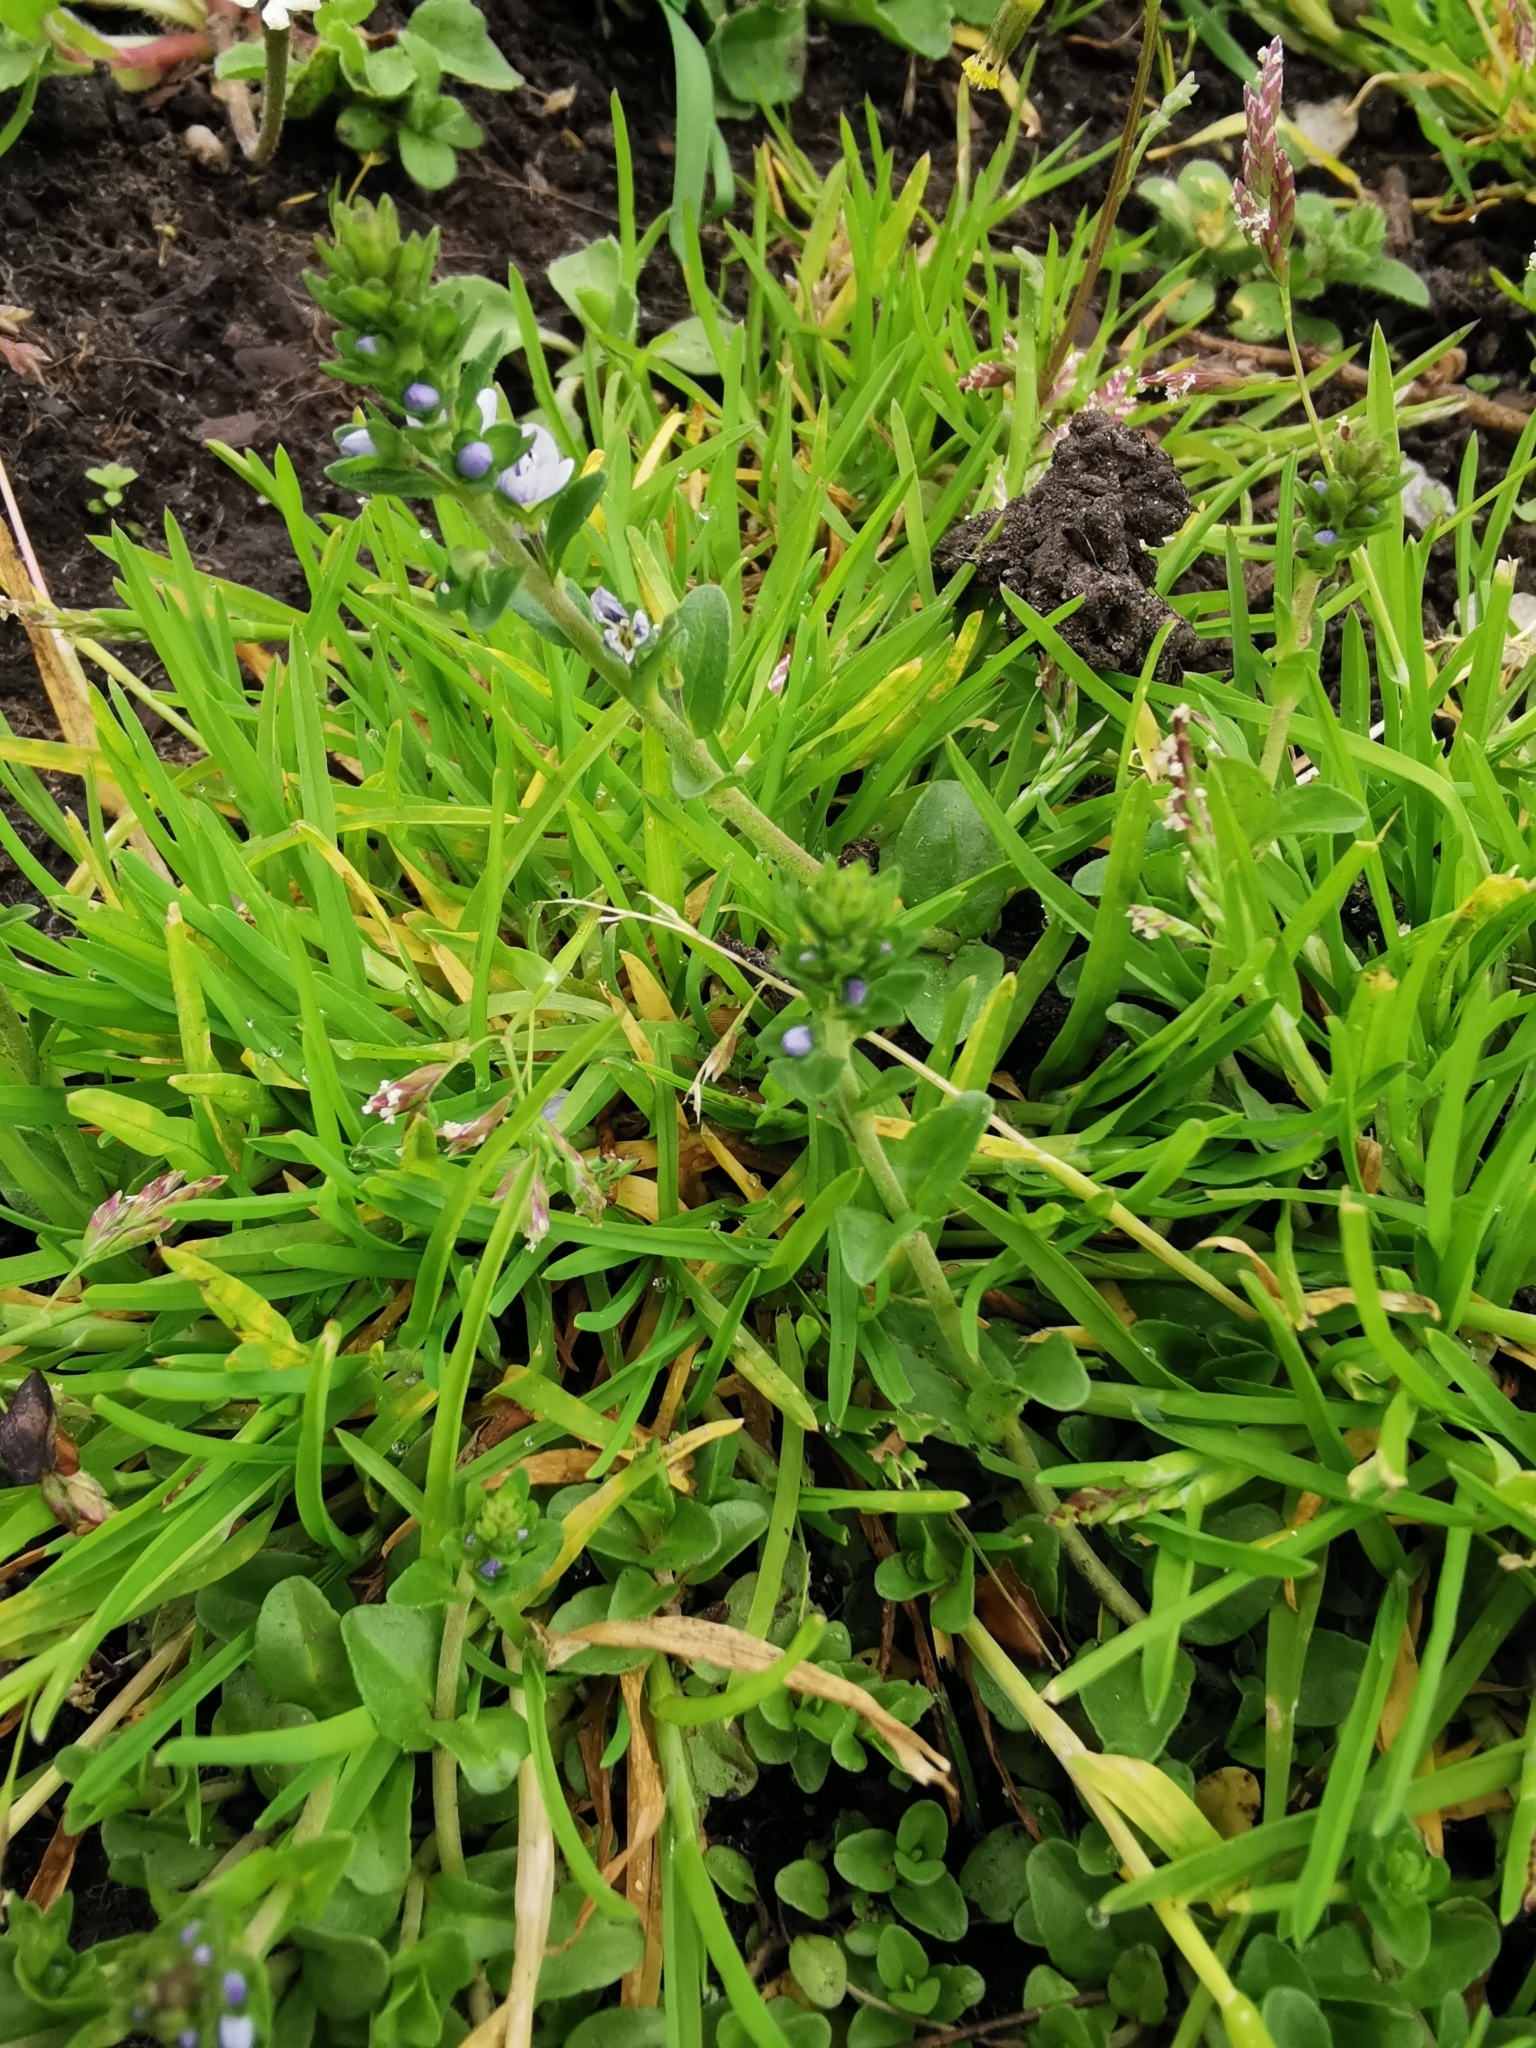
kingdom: Plantae
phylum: Tracheophyta
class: Magnoliopsida
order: Lamiales
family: Plantaginaceae
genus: Veronica
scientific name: Veronica serpyllifolia
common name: Thyme-leaved speedwell
